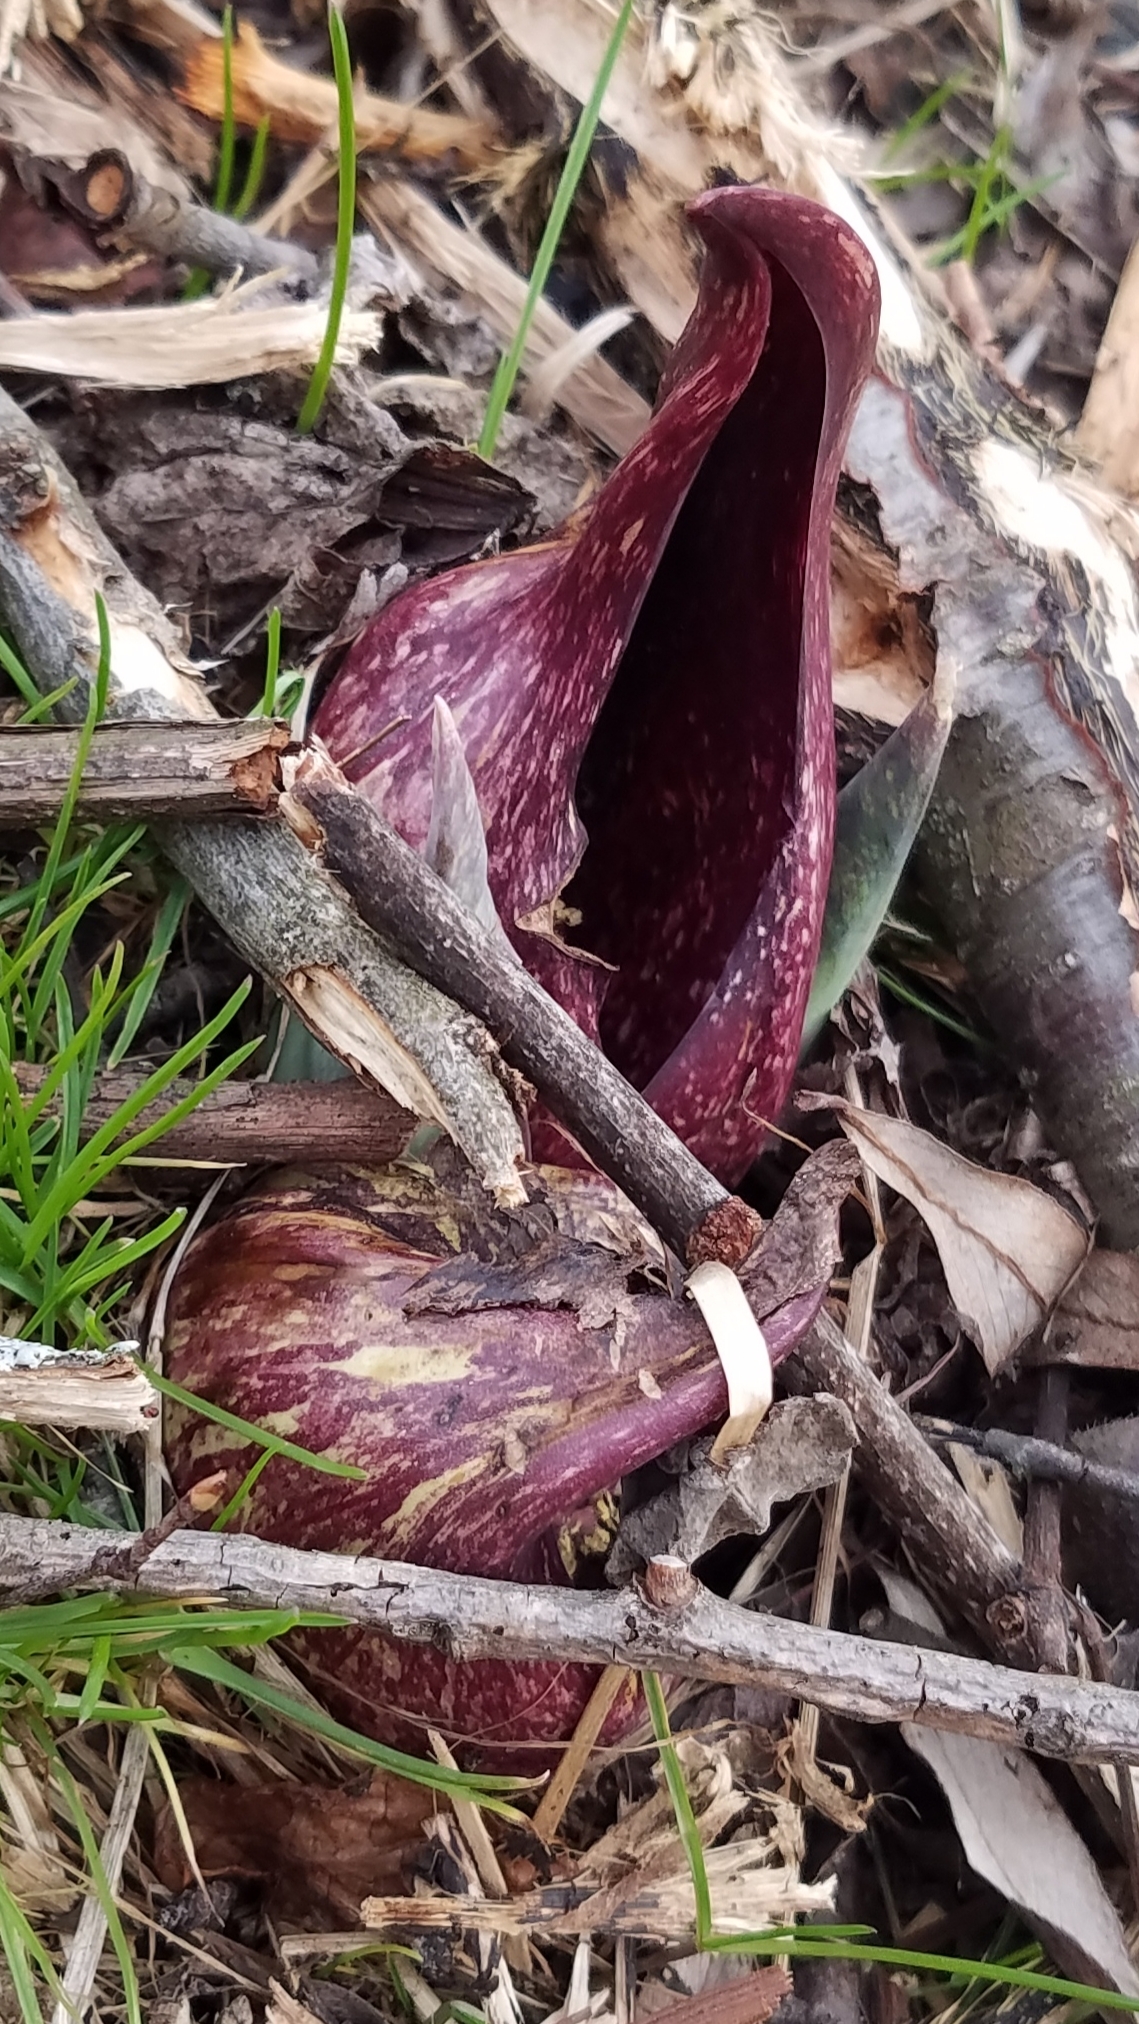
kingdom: Plantae
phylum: Tracheophyta
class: Liliopsida
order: Alismatales
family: Araceae
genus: Symplocarpus
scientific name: Symplocarpus foetidus
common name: Eastern skunk cabbage
